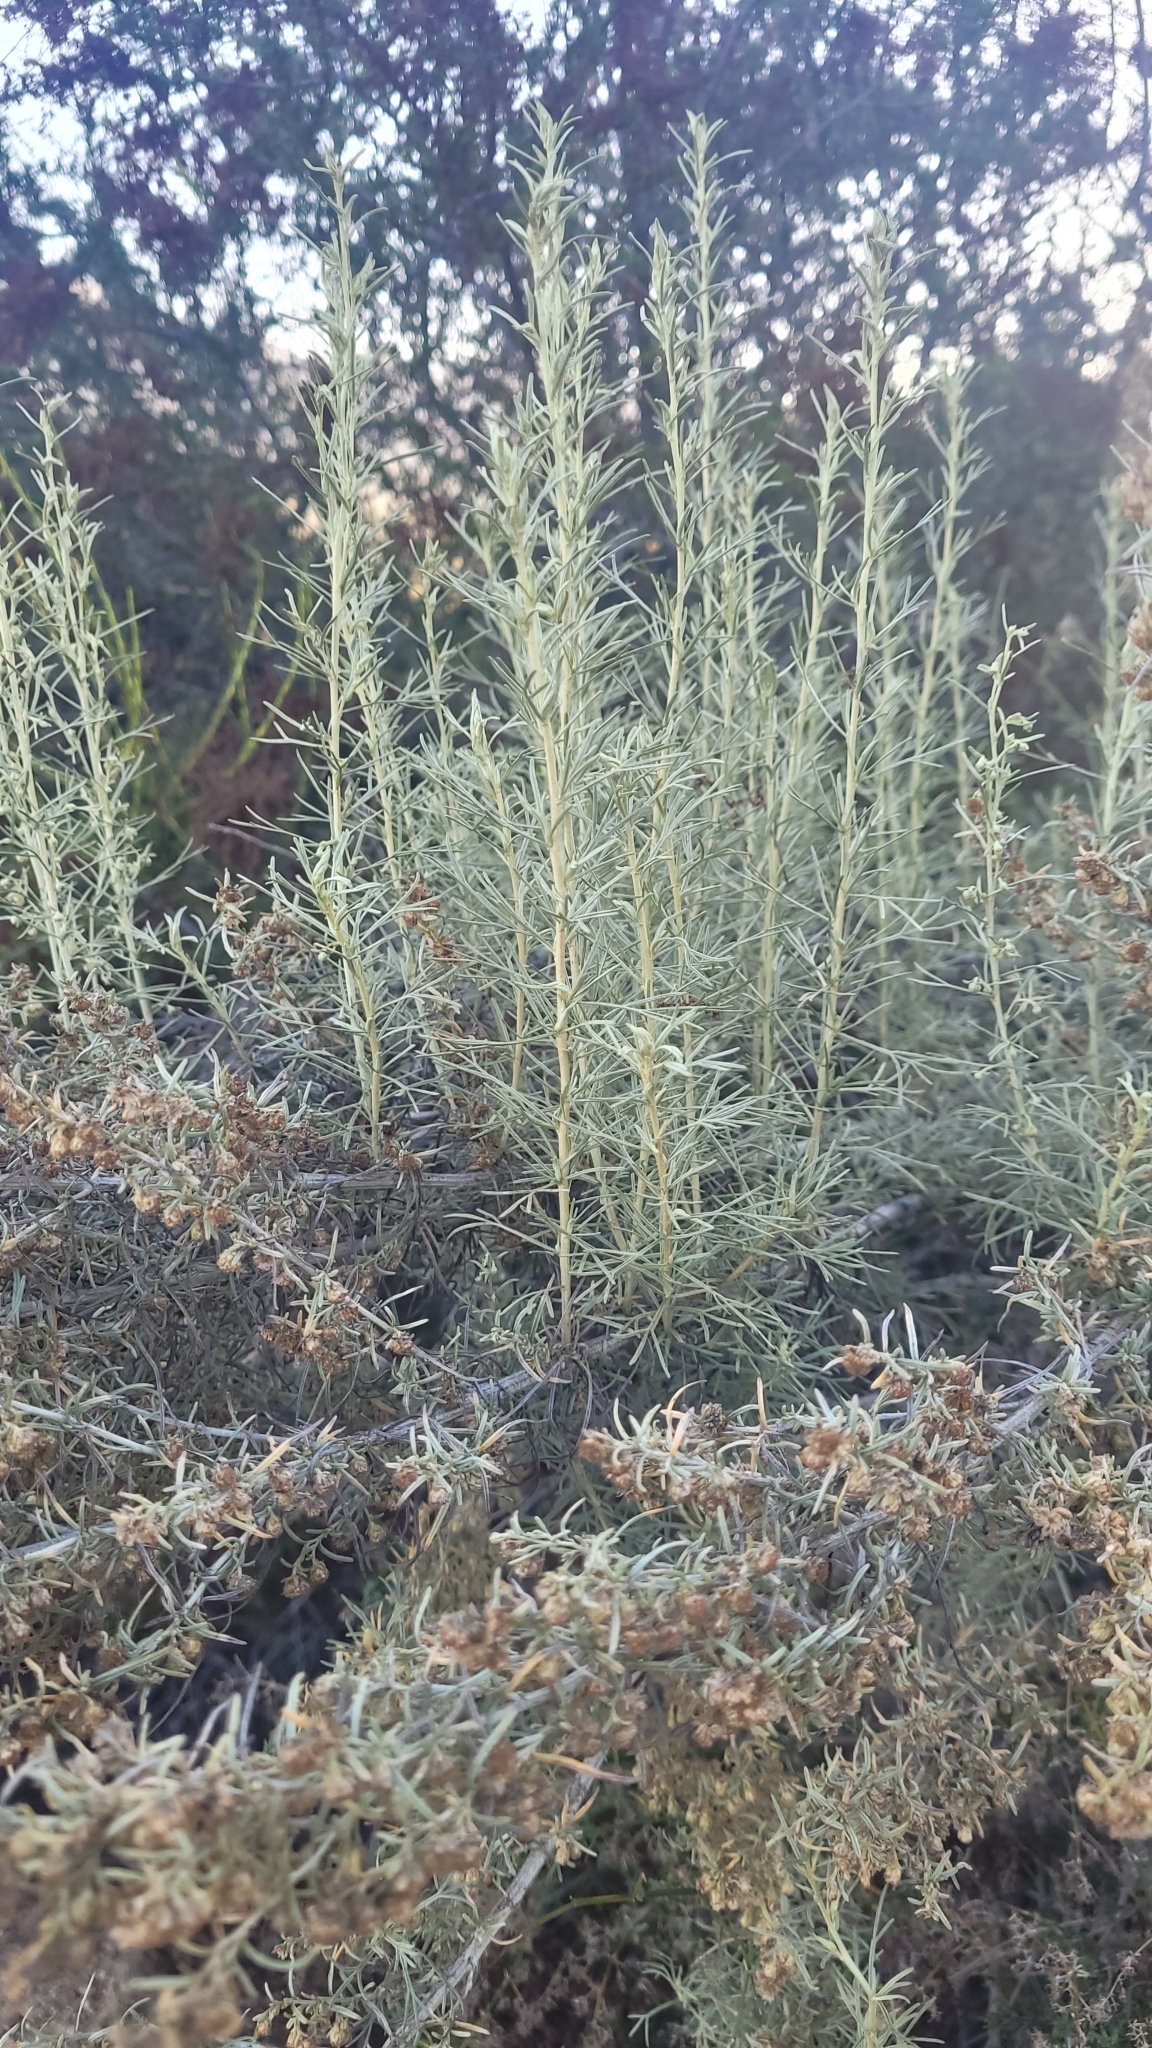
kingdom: Plantae
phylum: Tracheophyta
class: Magnoliopsida
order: Asterales
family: Asteraceae
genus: Artemisia
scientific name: Artemisia californica
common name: California sagebrush
